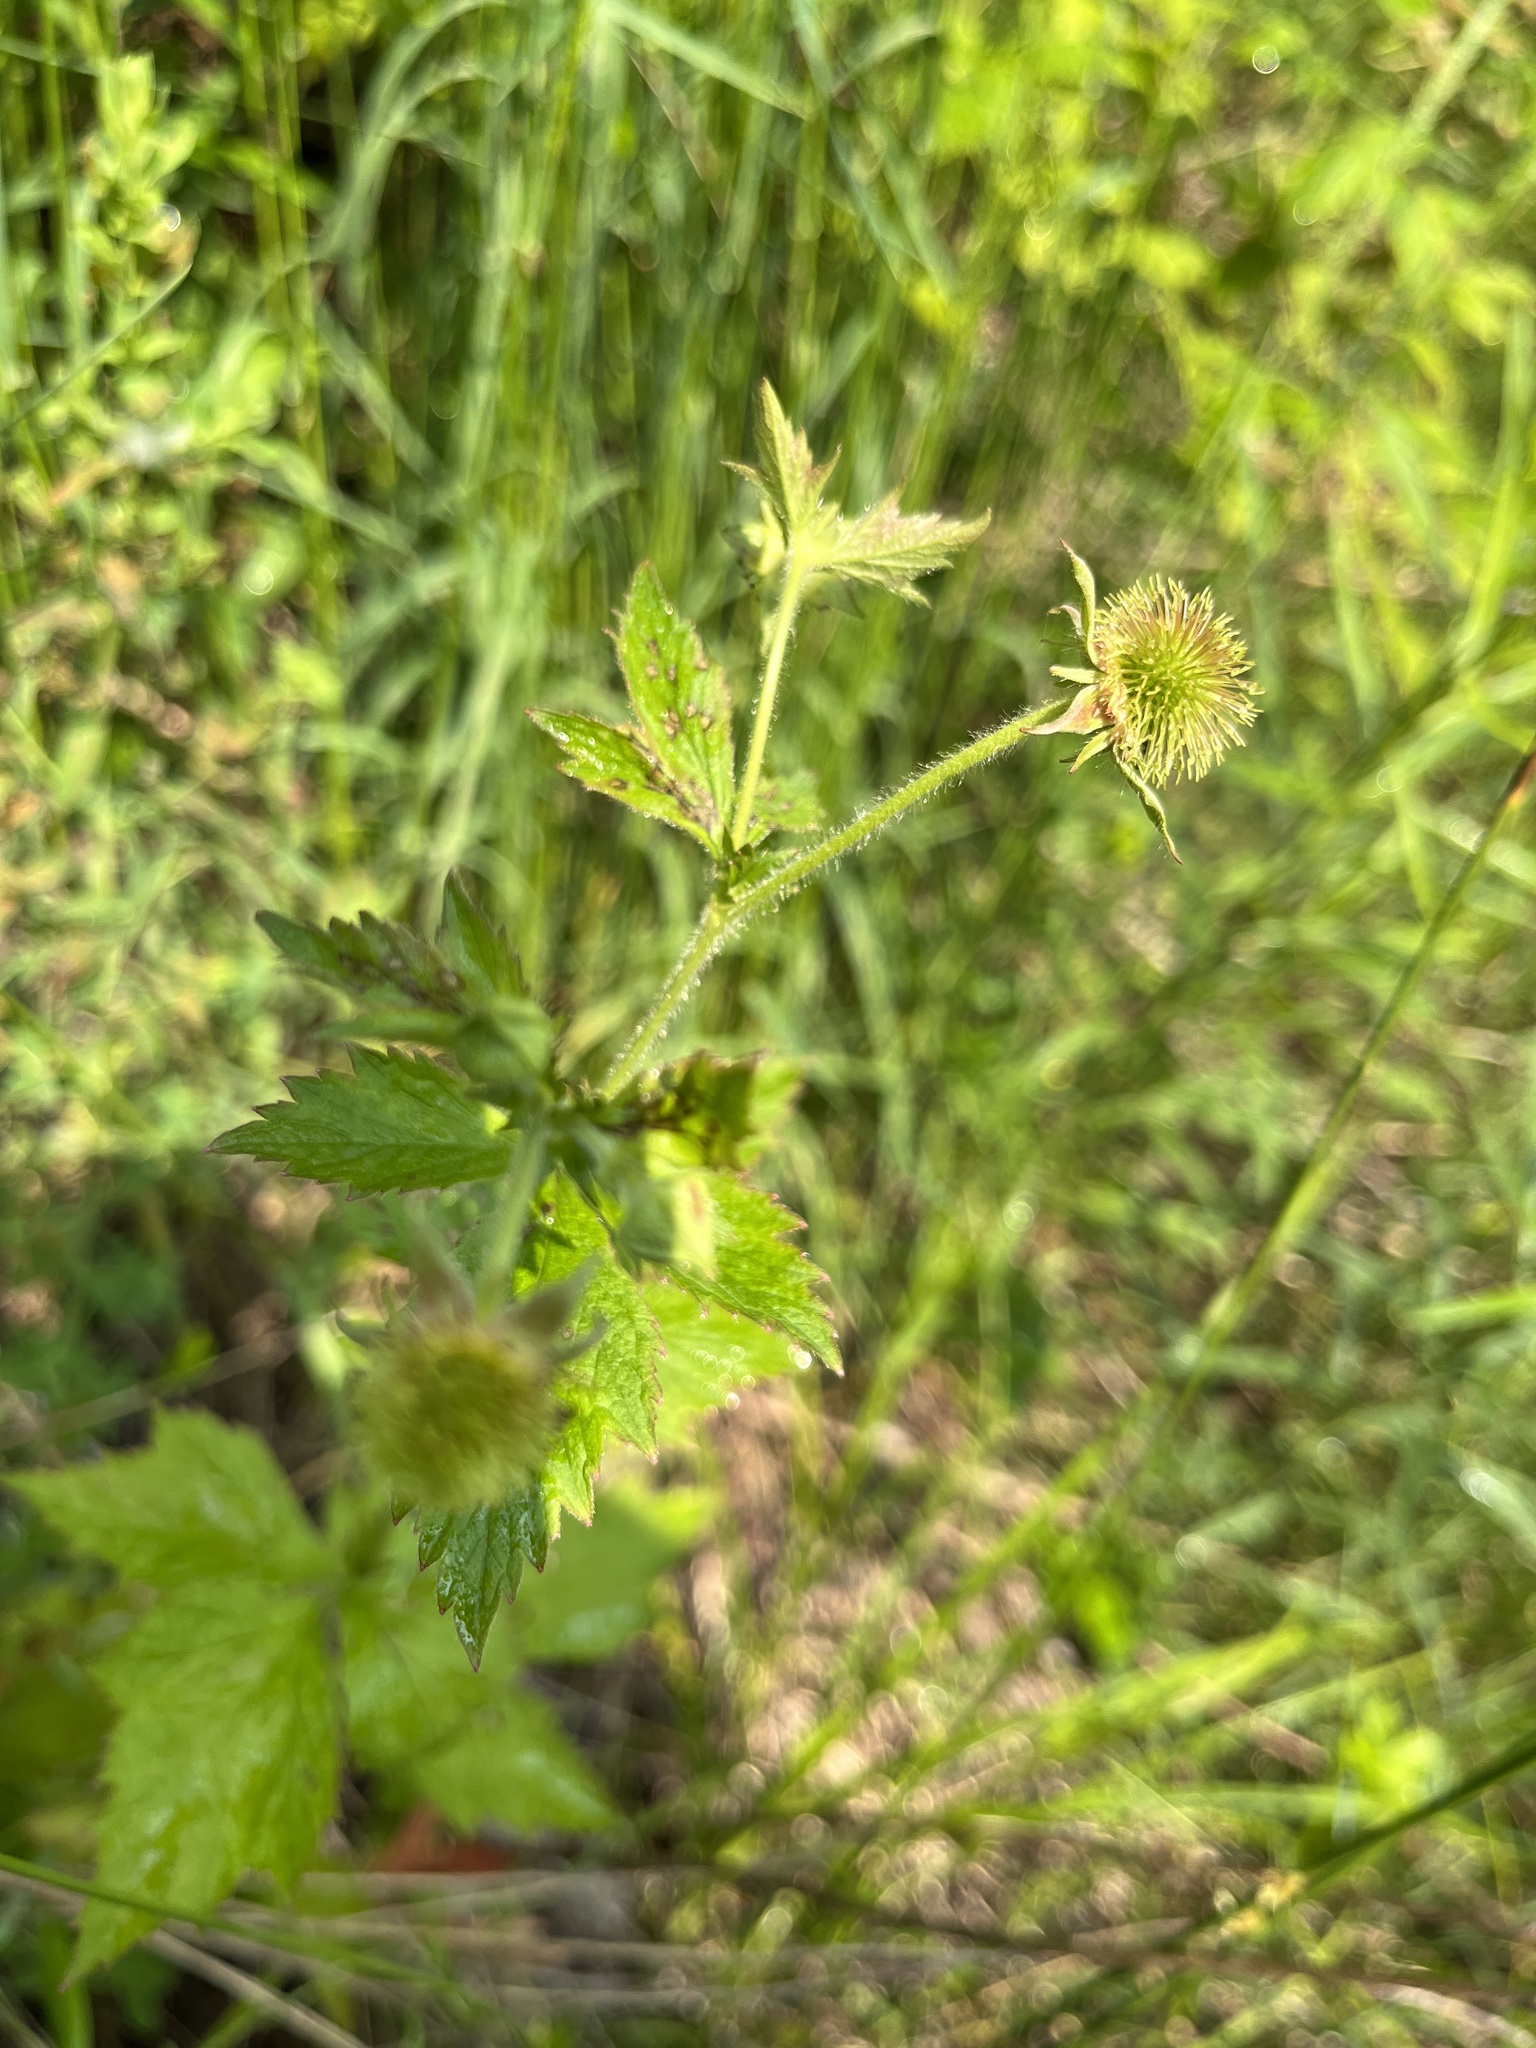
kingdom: Plantae
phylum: Tracheophyta
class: Magnoliopsida
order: Rosales
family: Rosaceae
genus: Geum
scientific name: Geum laciniatum
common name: Rough avens
